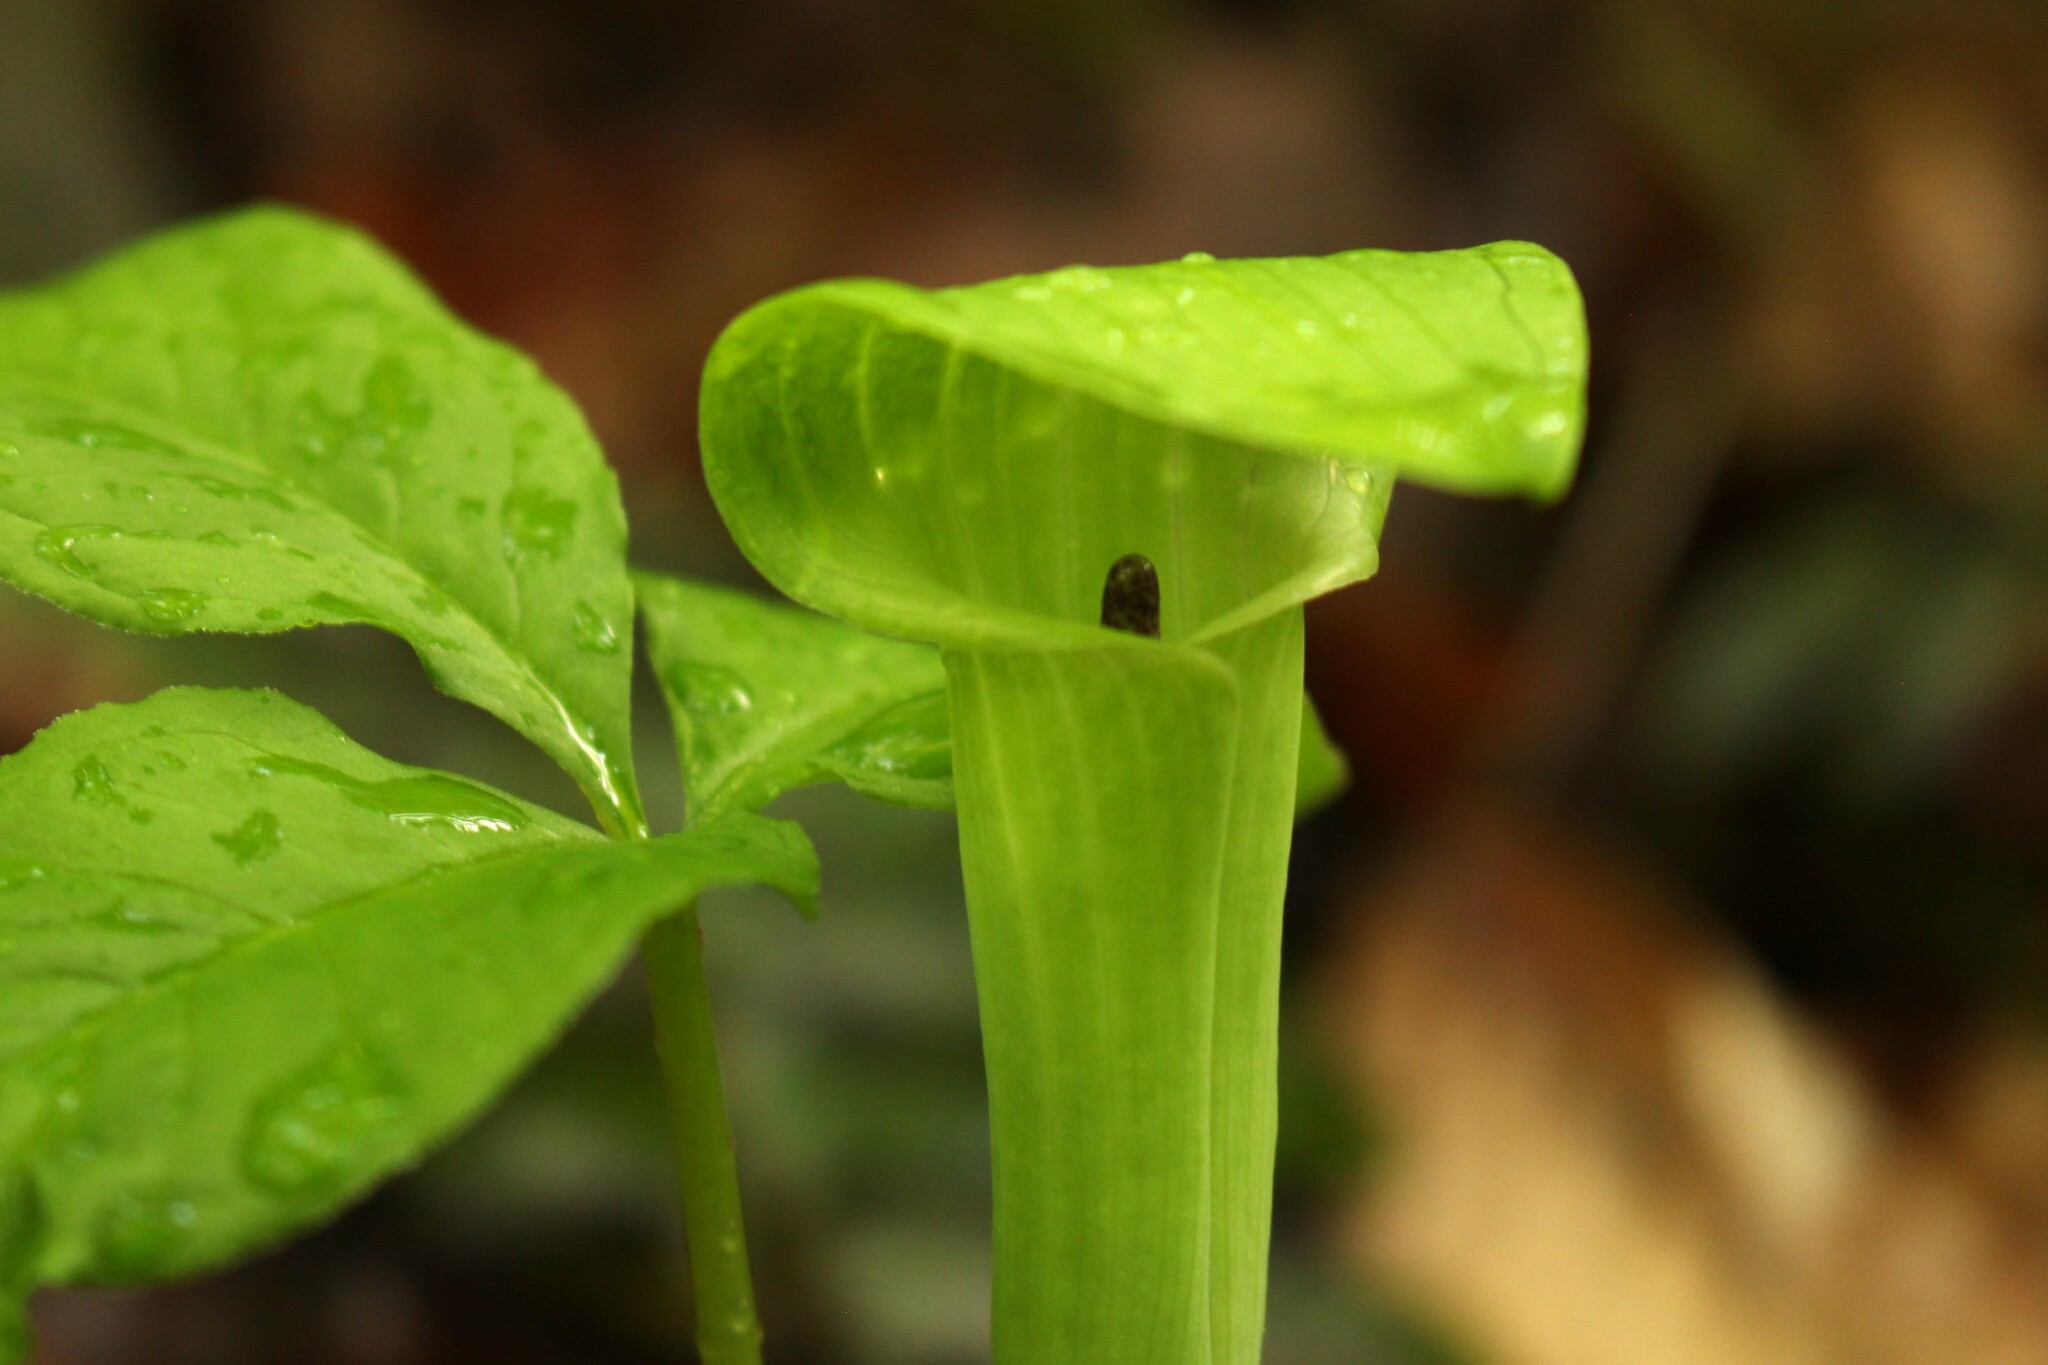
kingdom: Plantae
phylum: Tracheophyta
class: Liliopsida
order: Alismatales
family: Araceae
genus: Arisaema
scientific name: Arisaema pusillum
